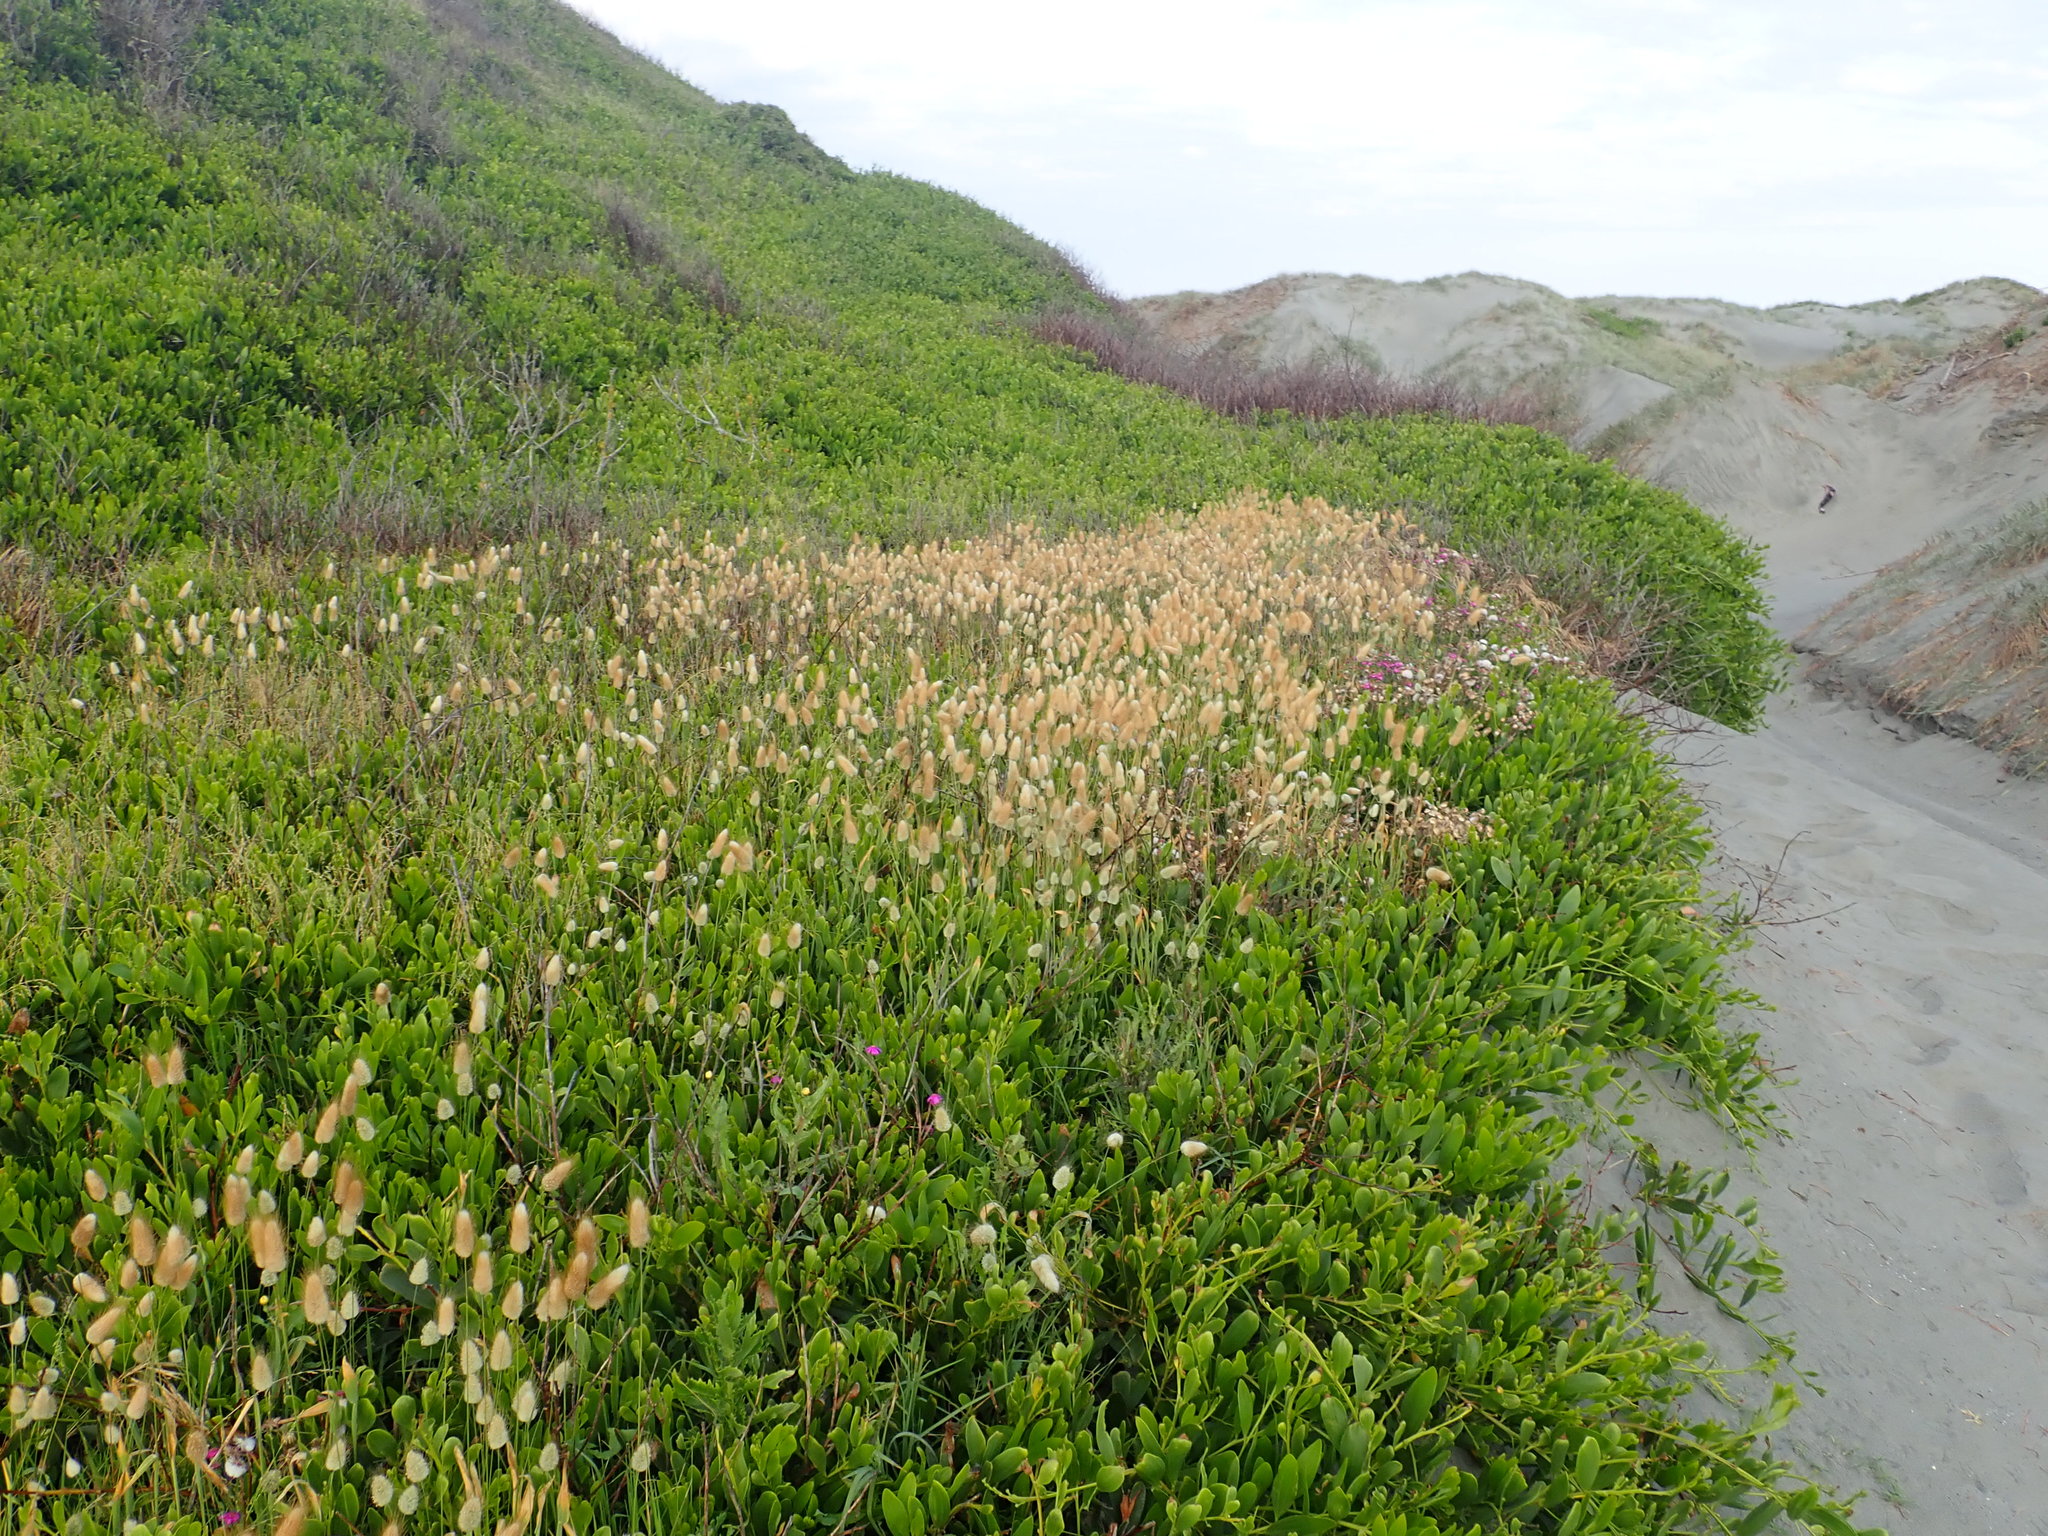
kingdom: Plantae
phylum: Tracheophyta
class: Liliopsida
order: Poales
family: Poaceae
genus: Lagurus
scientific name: Lagurus ovatus
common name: Hare's-tail
